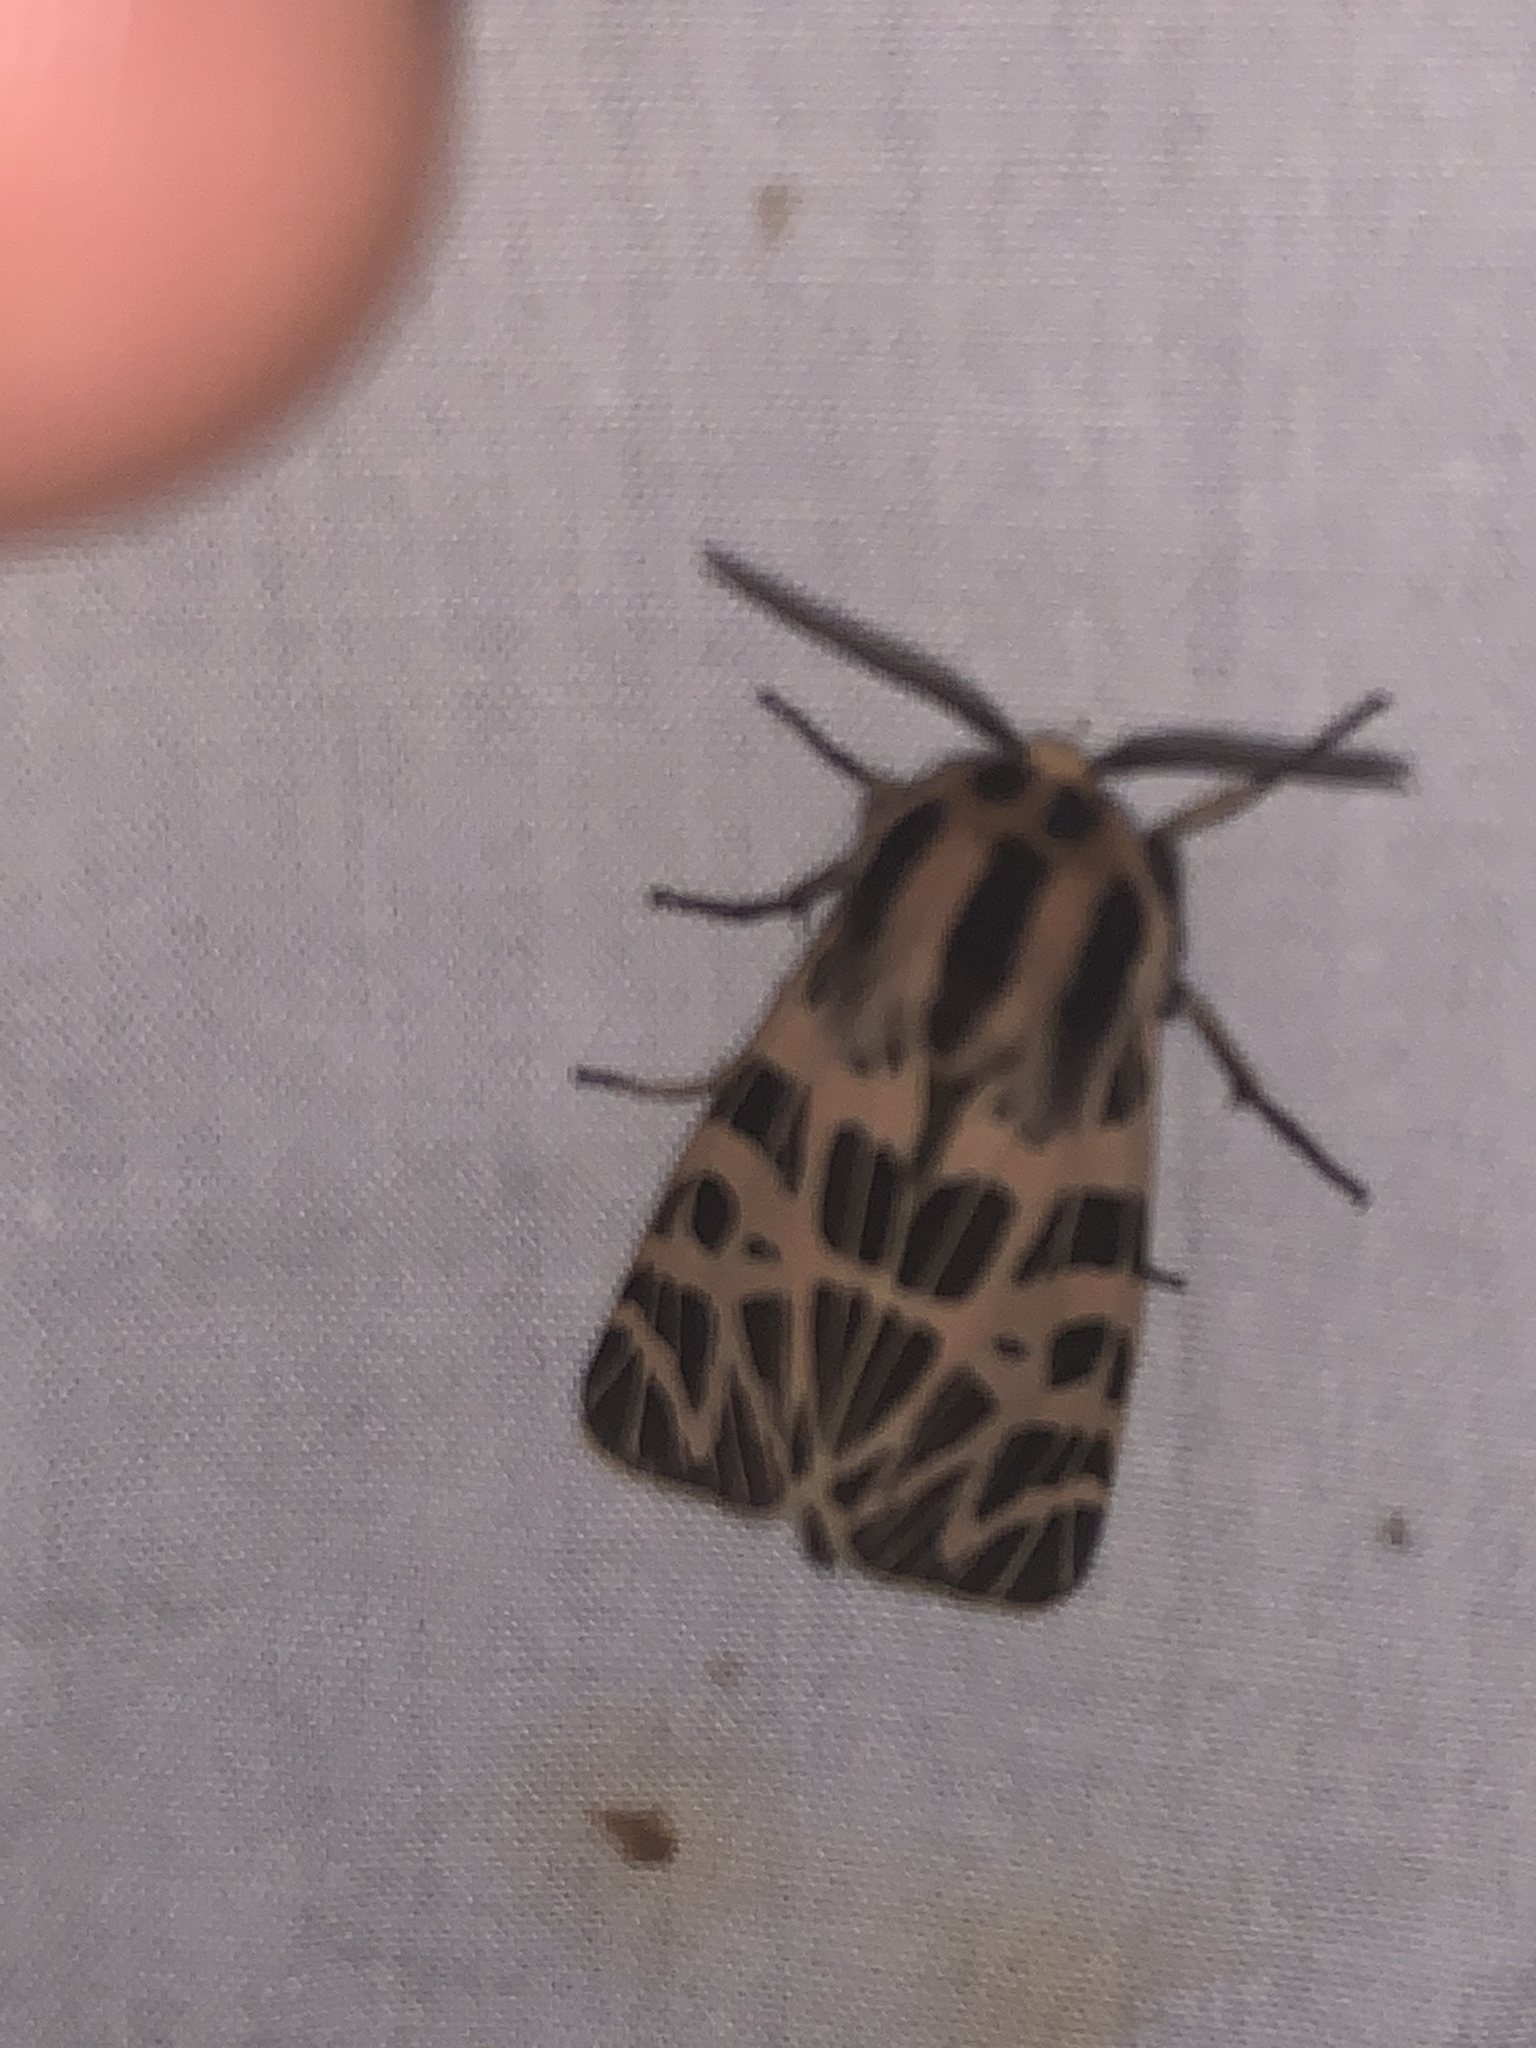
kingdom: Animalia
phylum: Arthropoda
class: Insecta
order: Lepidoptera
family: Erebidae
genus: Apantesis
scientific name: Apantesis
